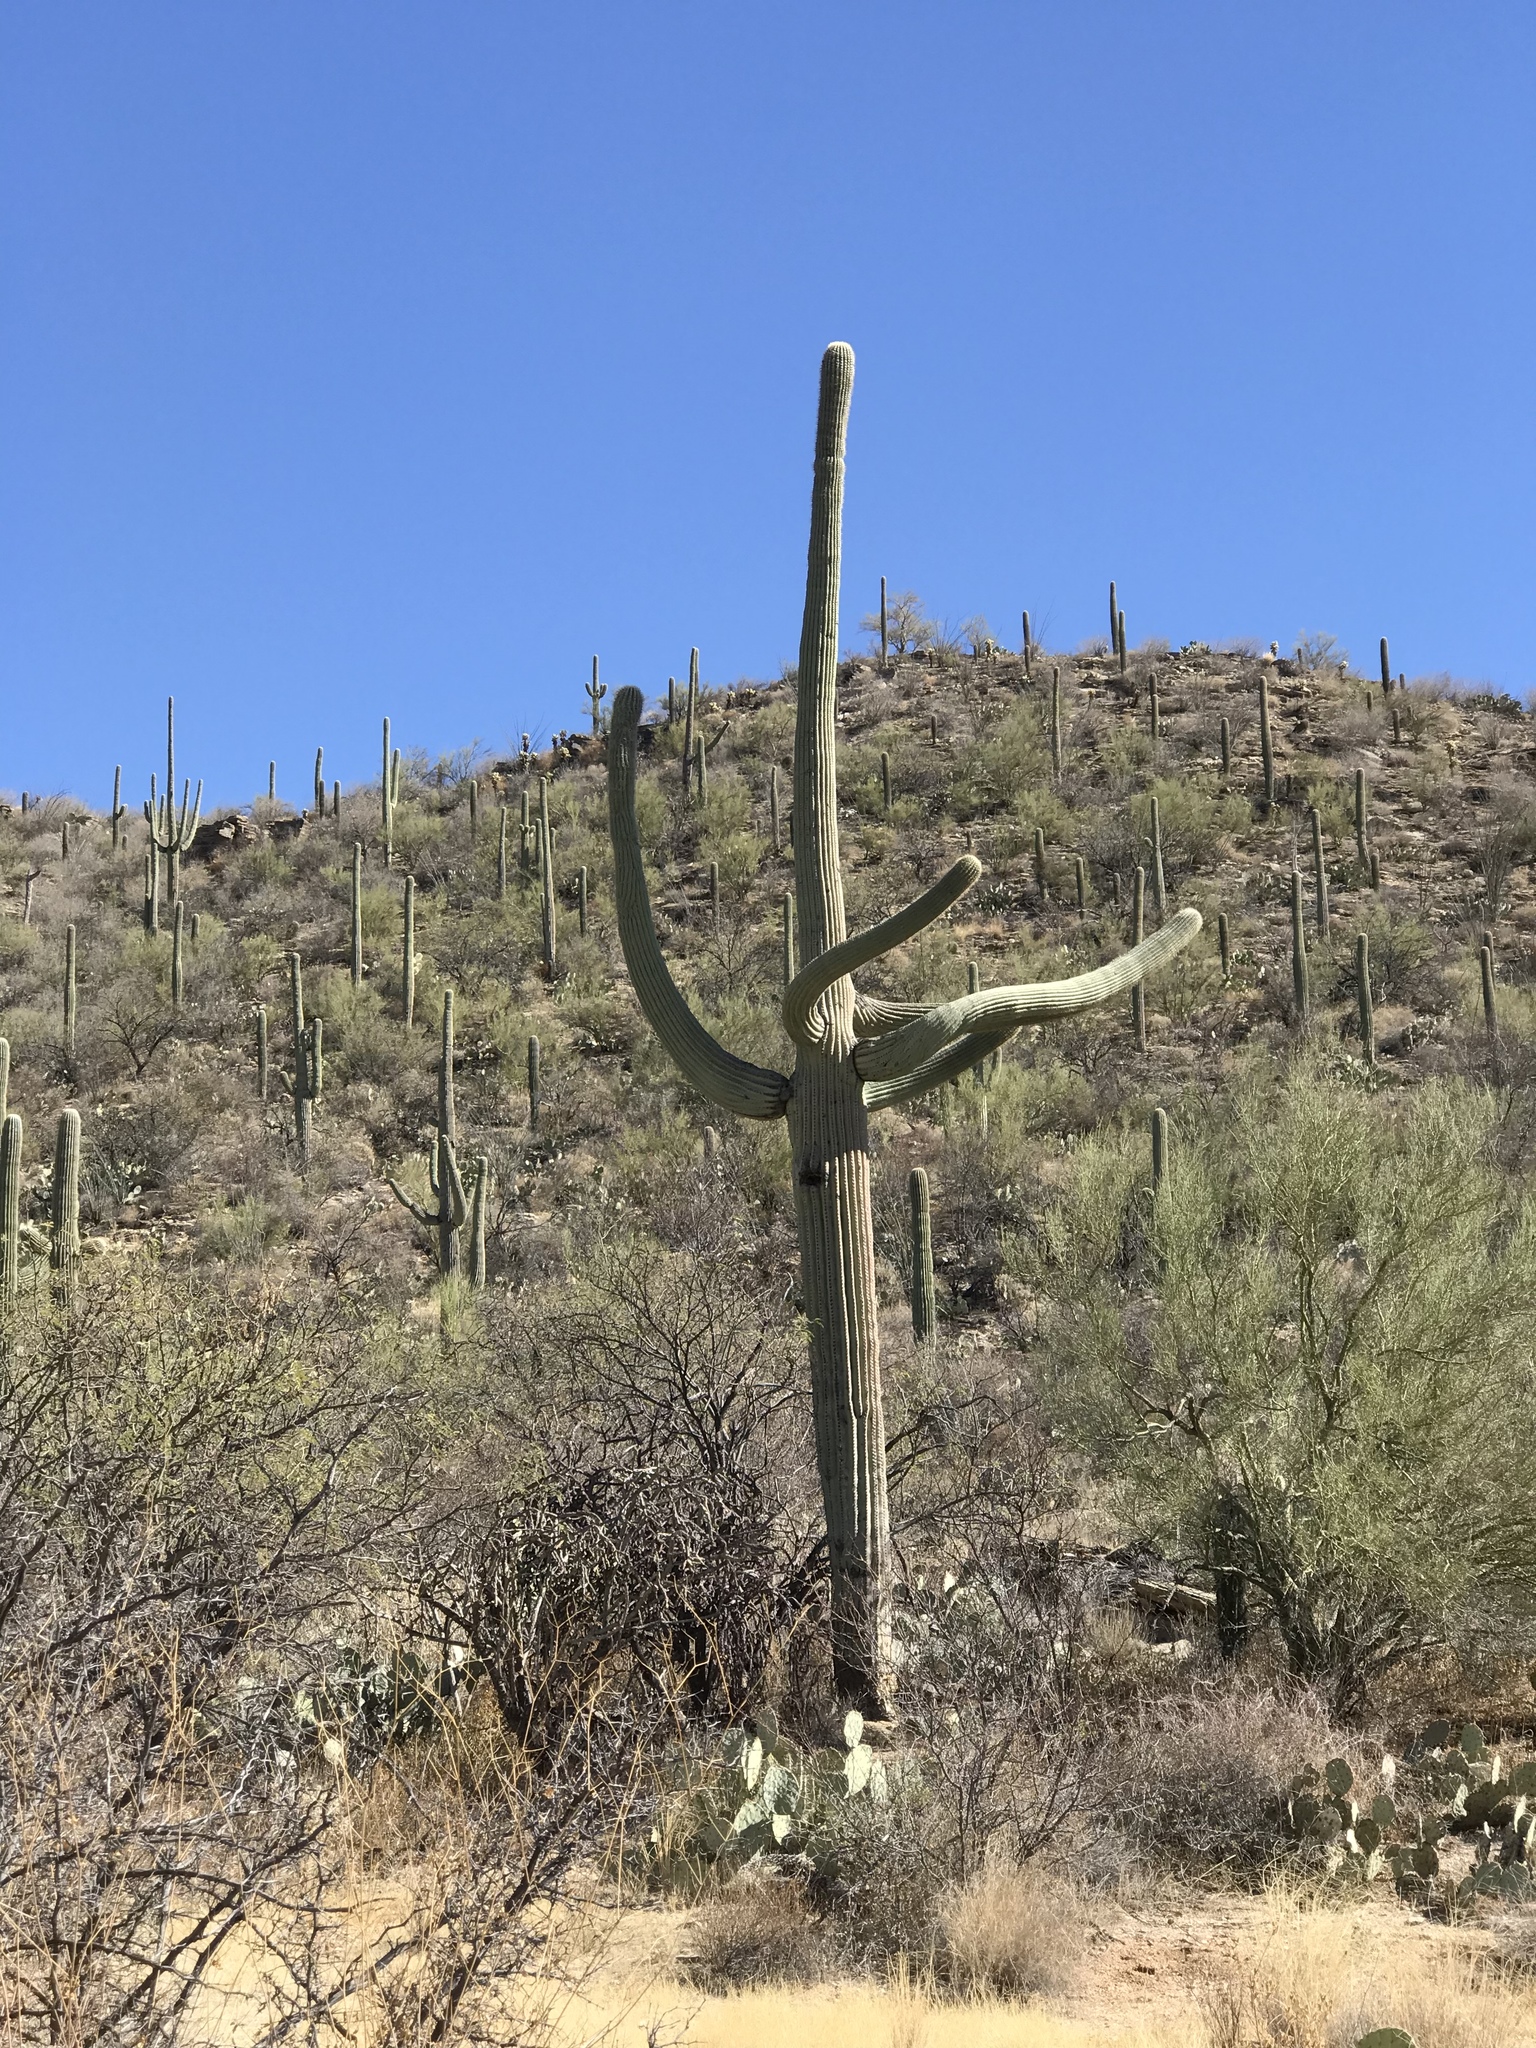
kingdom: Plantae
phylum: Tracheophyta
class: Magnoliopsida
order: Caryophyllales
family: Cactaceae
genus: Carnegiea
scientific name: Carnegiea gigantea
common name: Saguaro
